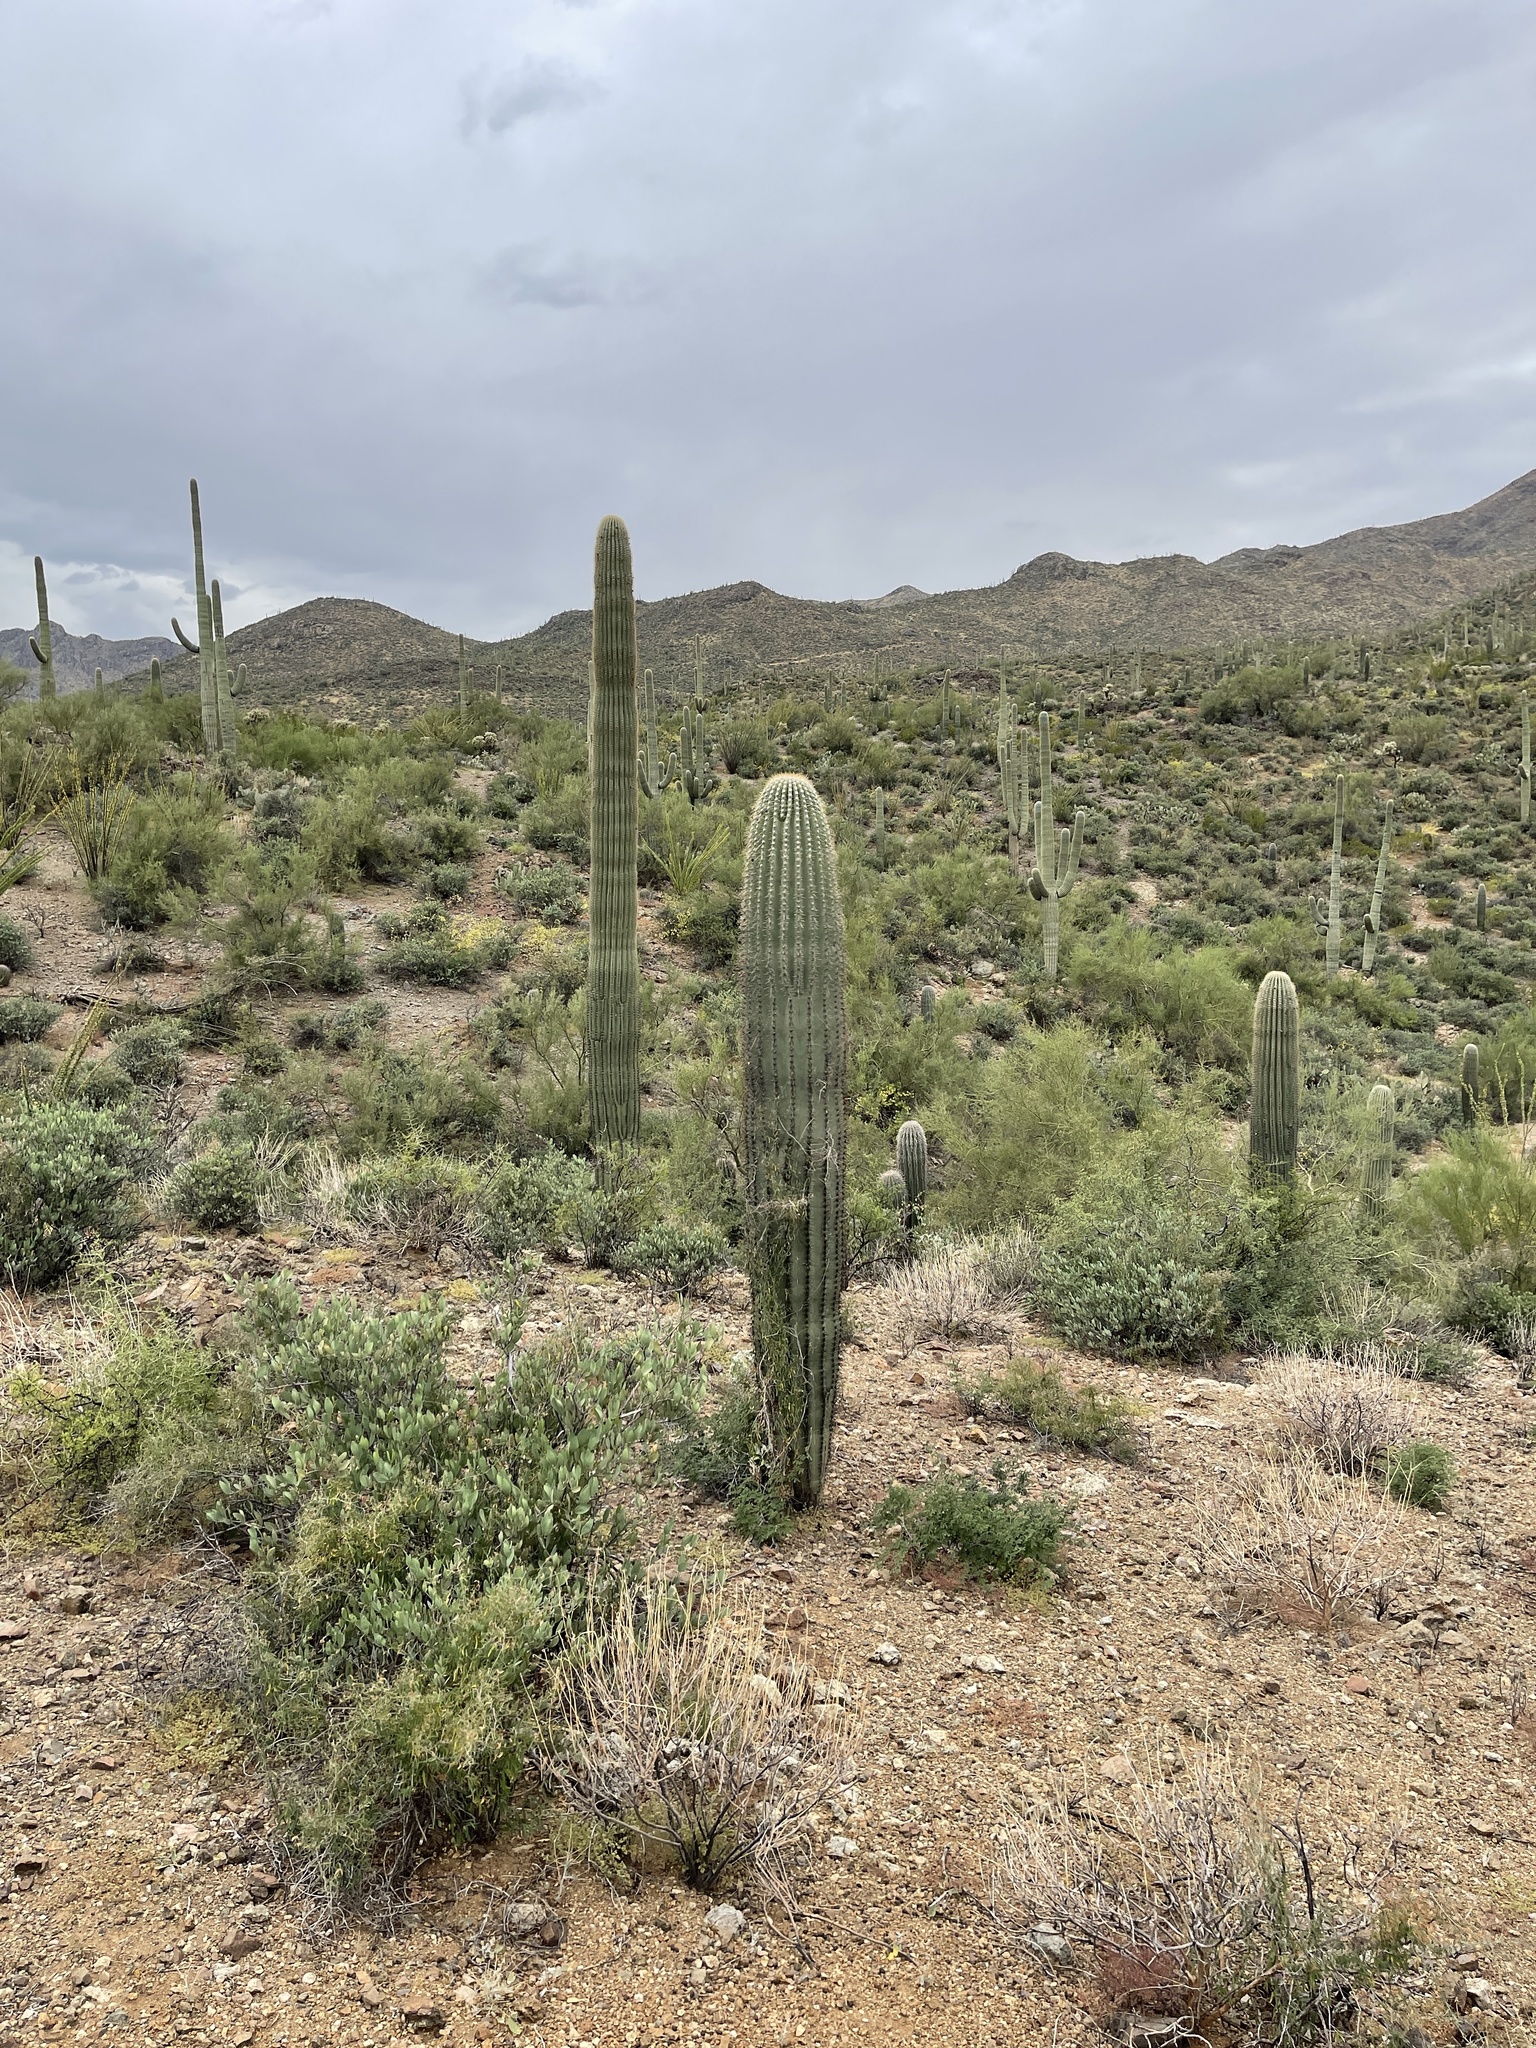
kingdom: Plantae
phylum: Tracheophyta
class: Magnoliopsida
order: Caryophyllales
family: Cactaceae
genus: Carnegiea
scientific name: Carnegiea gigantea
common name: Saguaro
